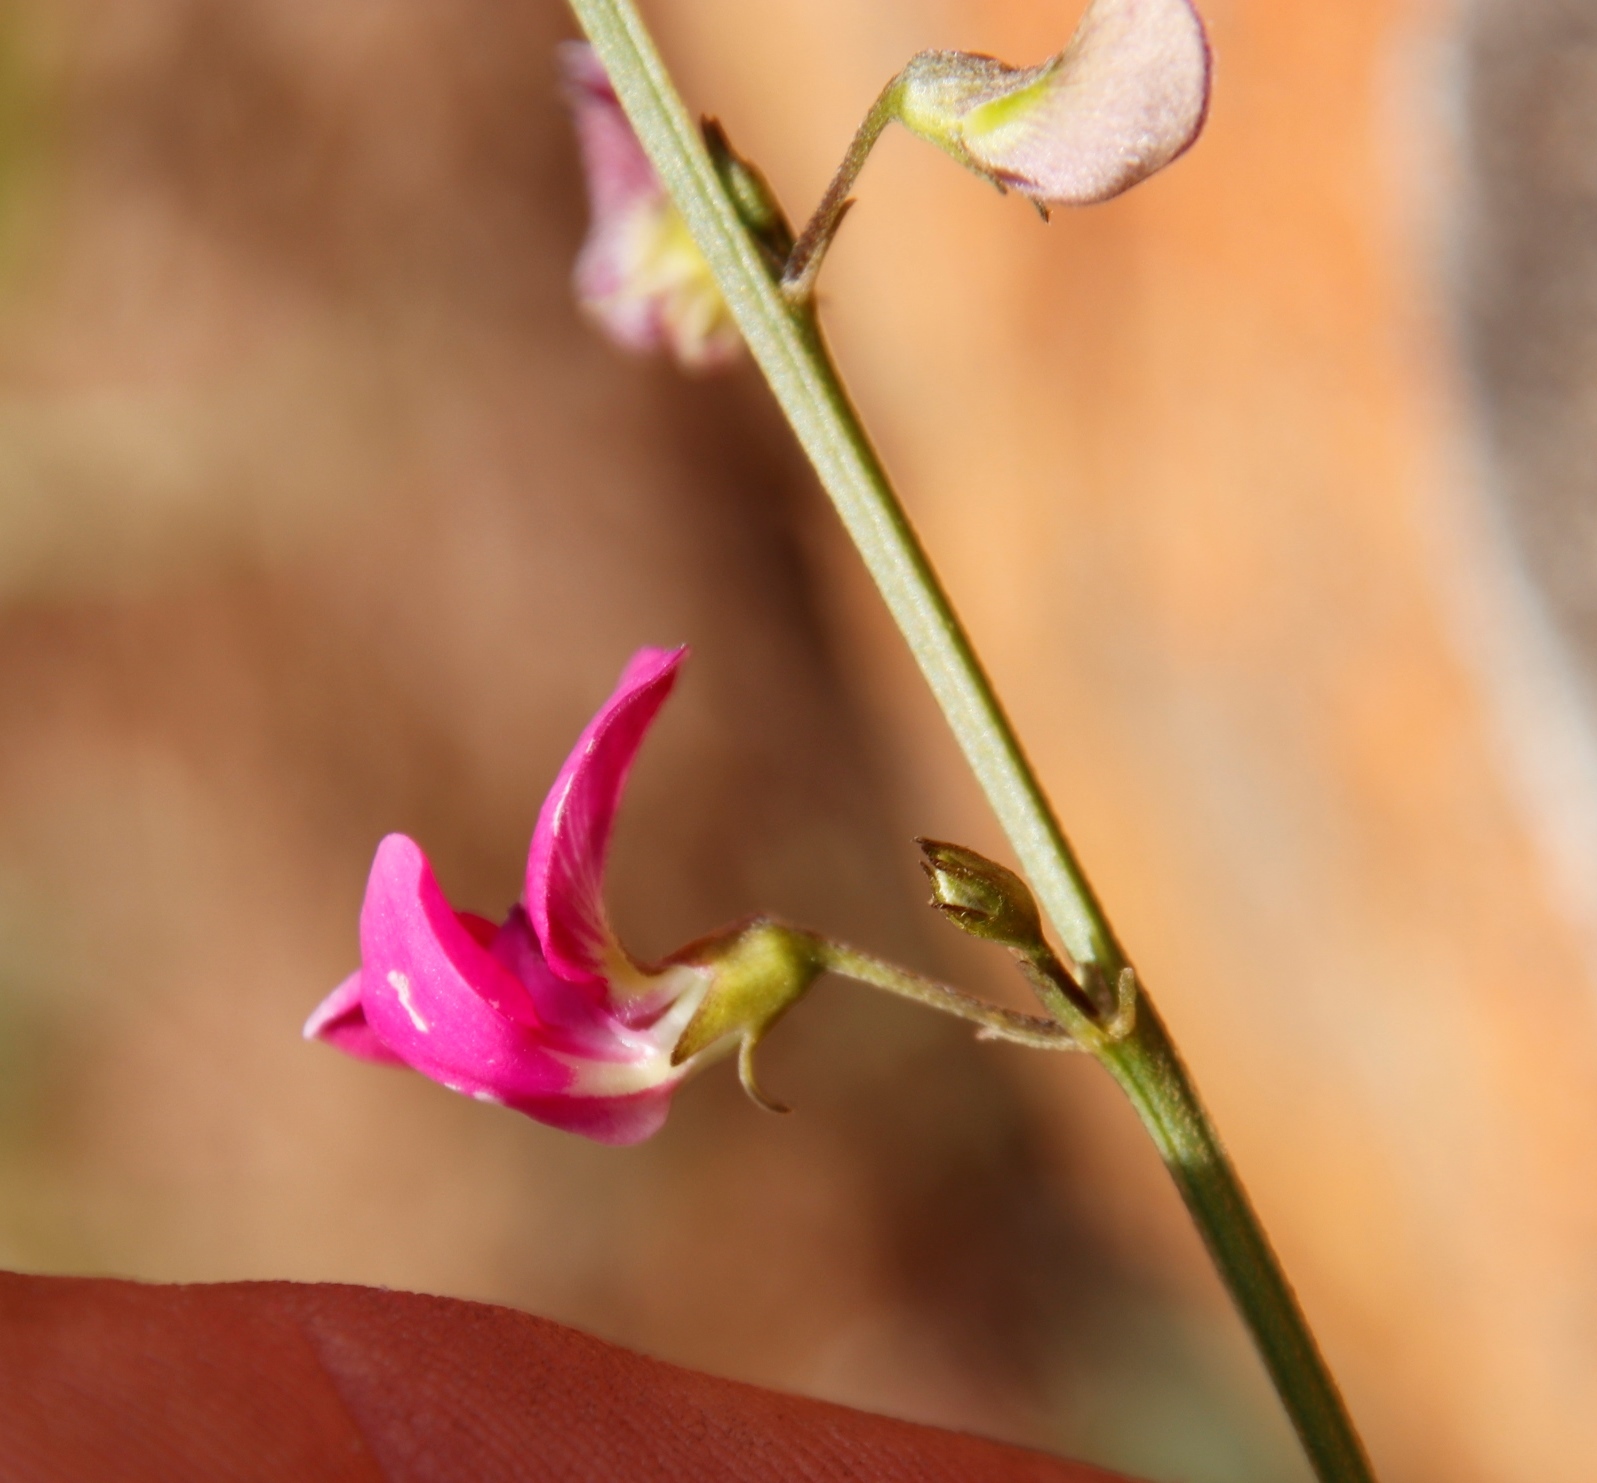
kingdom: Plantae
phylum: Tracheophyta
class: Magnoliopsida
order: Fabales
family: Fabaceae
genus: Tephrosia
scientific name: Tephrosia capensis
